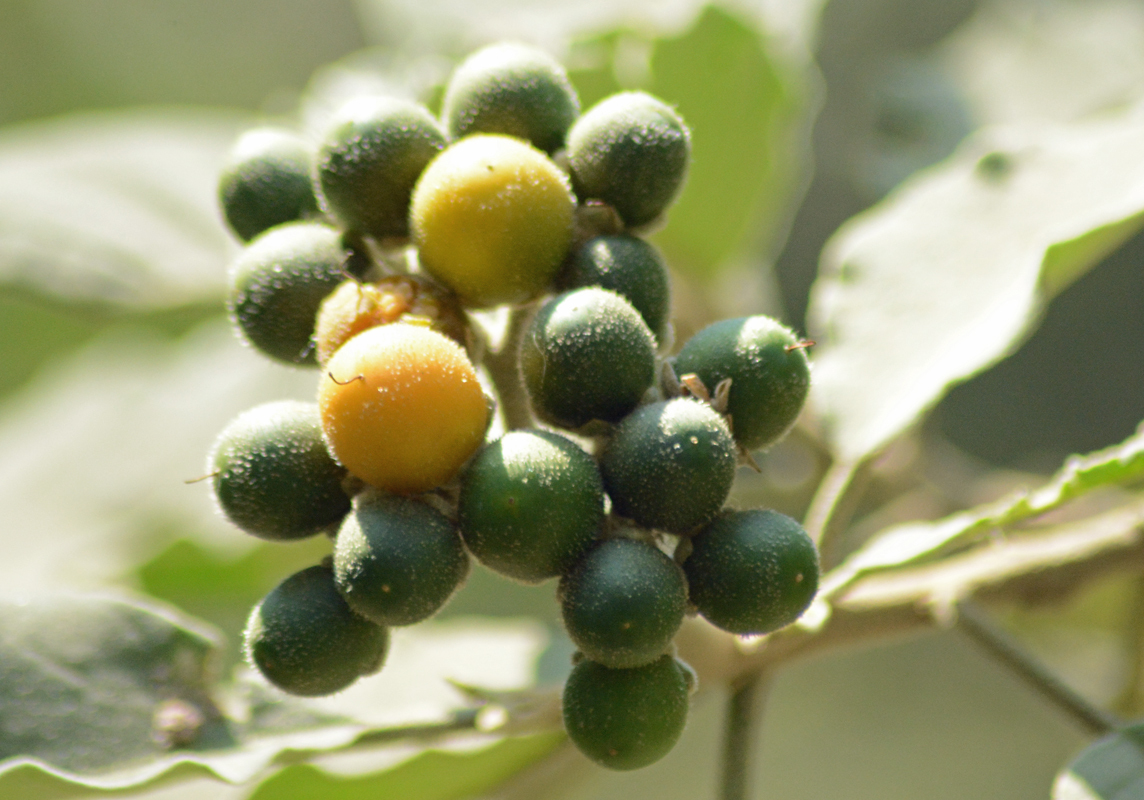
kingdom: Plantae
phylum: Tracheophyta
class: Magnoliopsida
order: Solanales
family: Solanaceae
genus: Solanum
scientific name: Solanum erianthum
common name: Tobacco-tree
